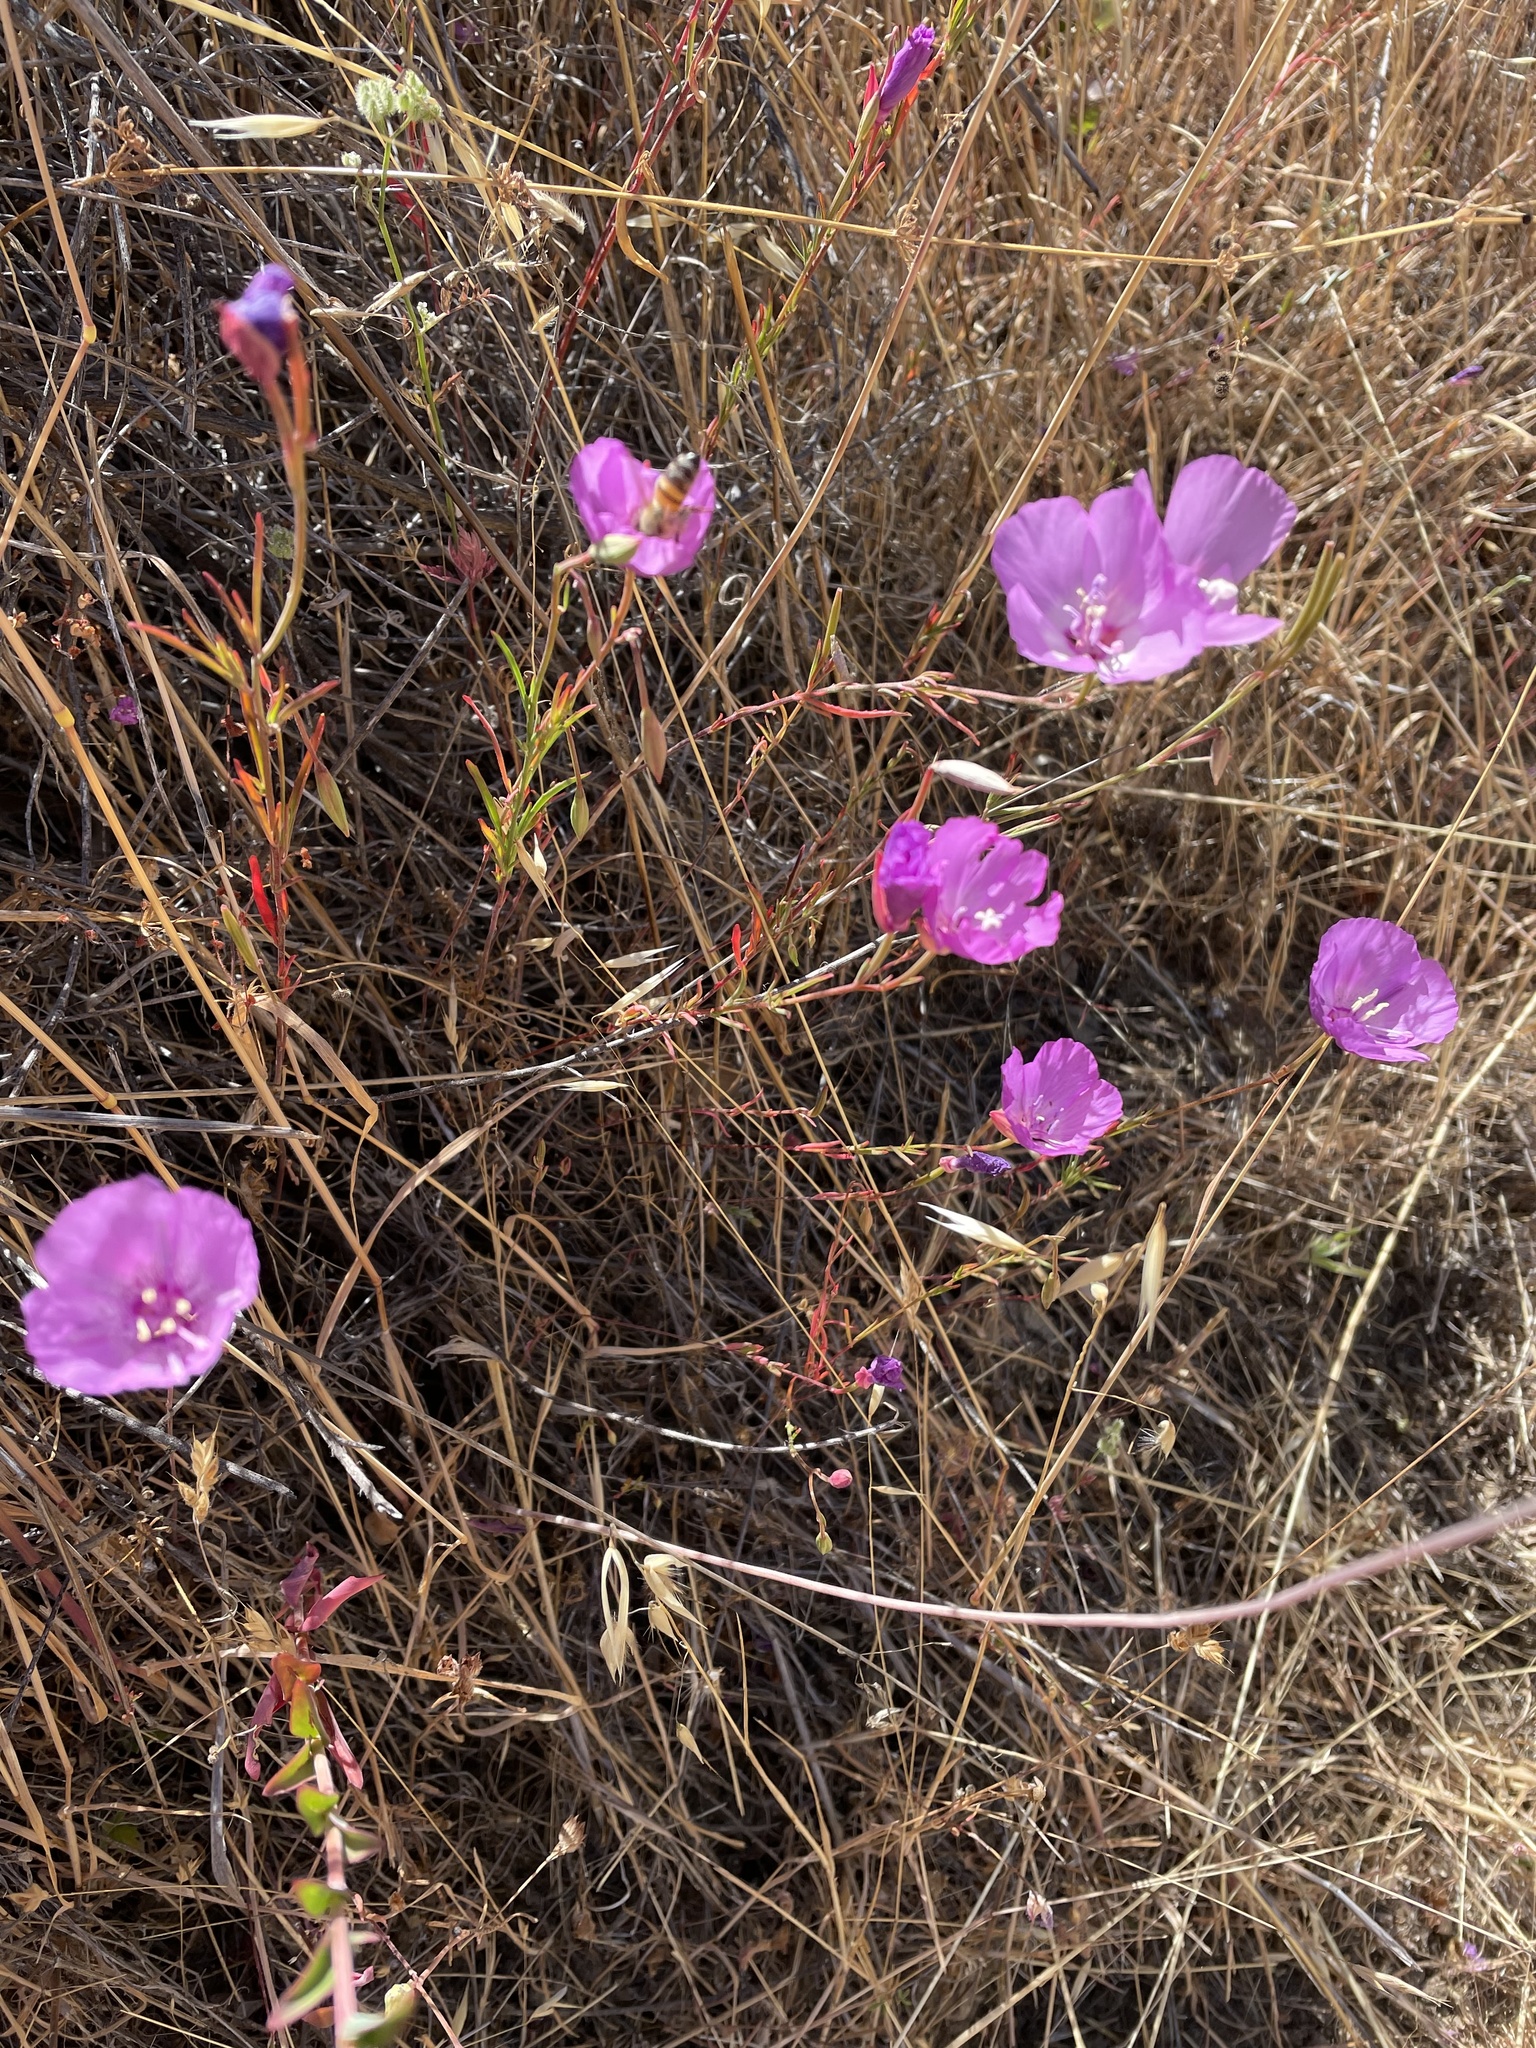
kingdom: Plantae
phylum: Tracheophyta
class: Magnoliopsida
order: Myrtales
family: Onagraceae
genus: Clarkia
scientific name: Clarkia lewisii
